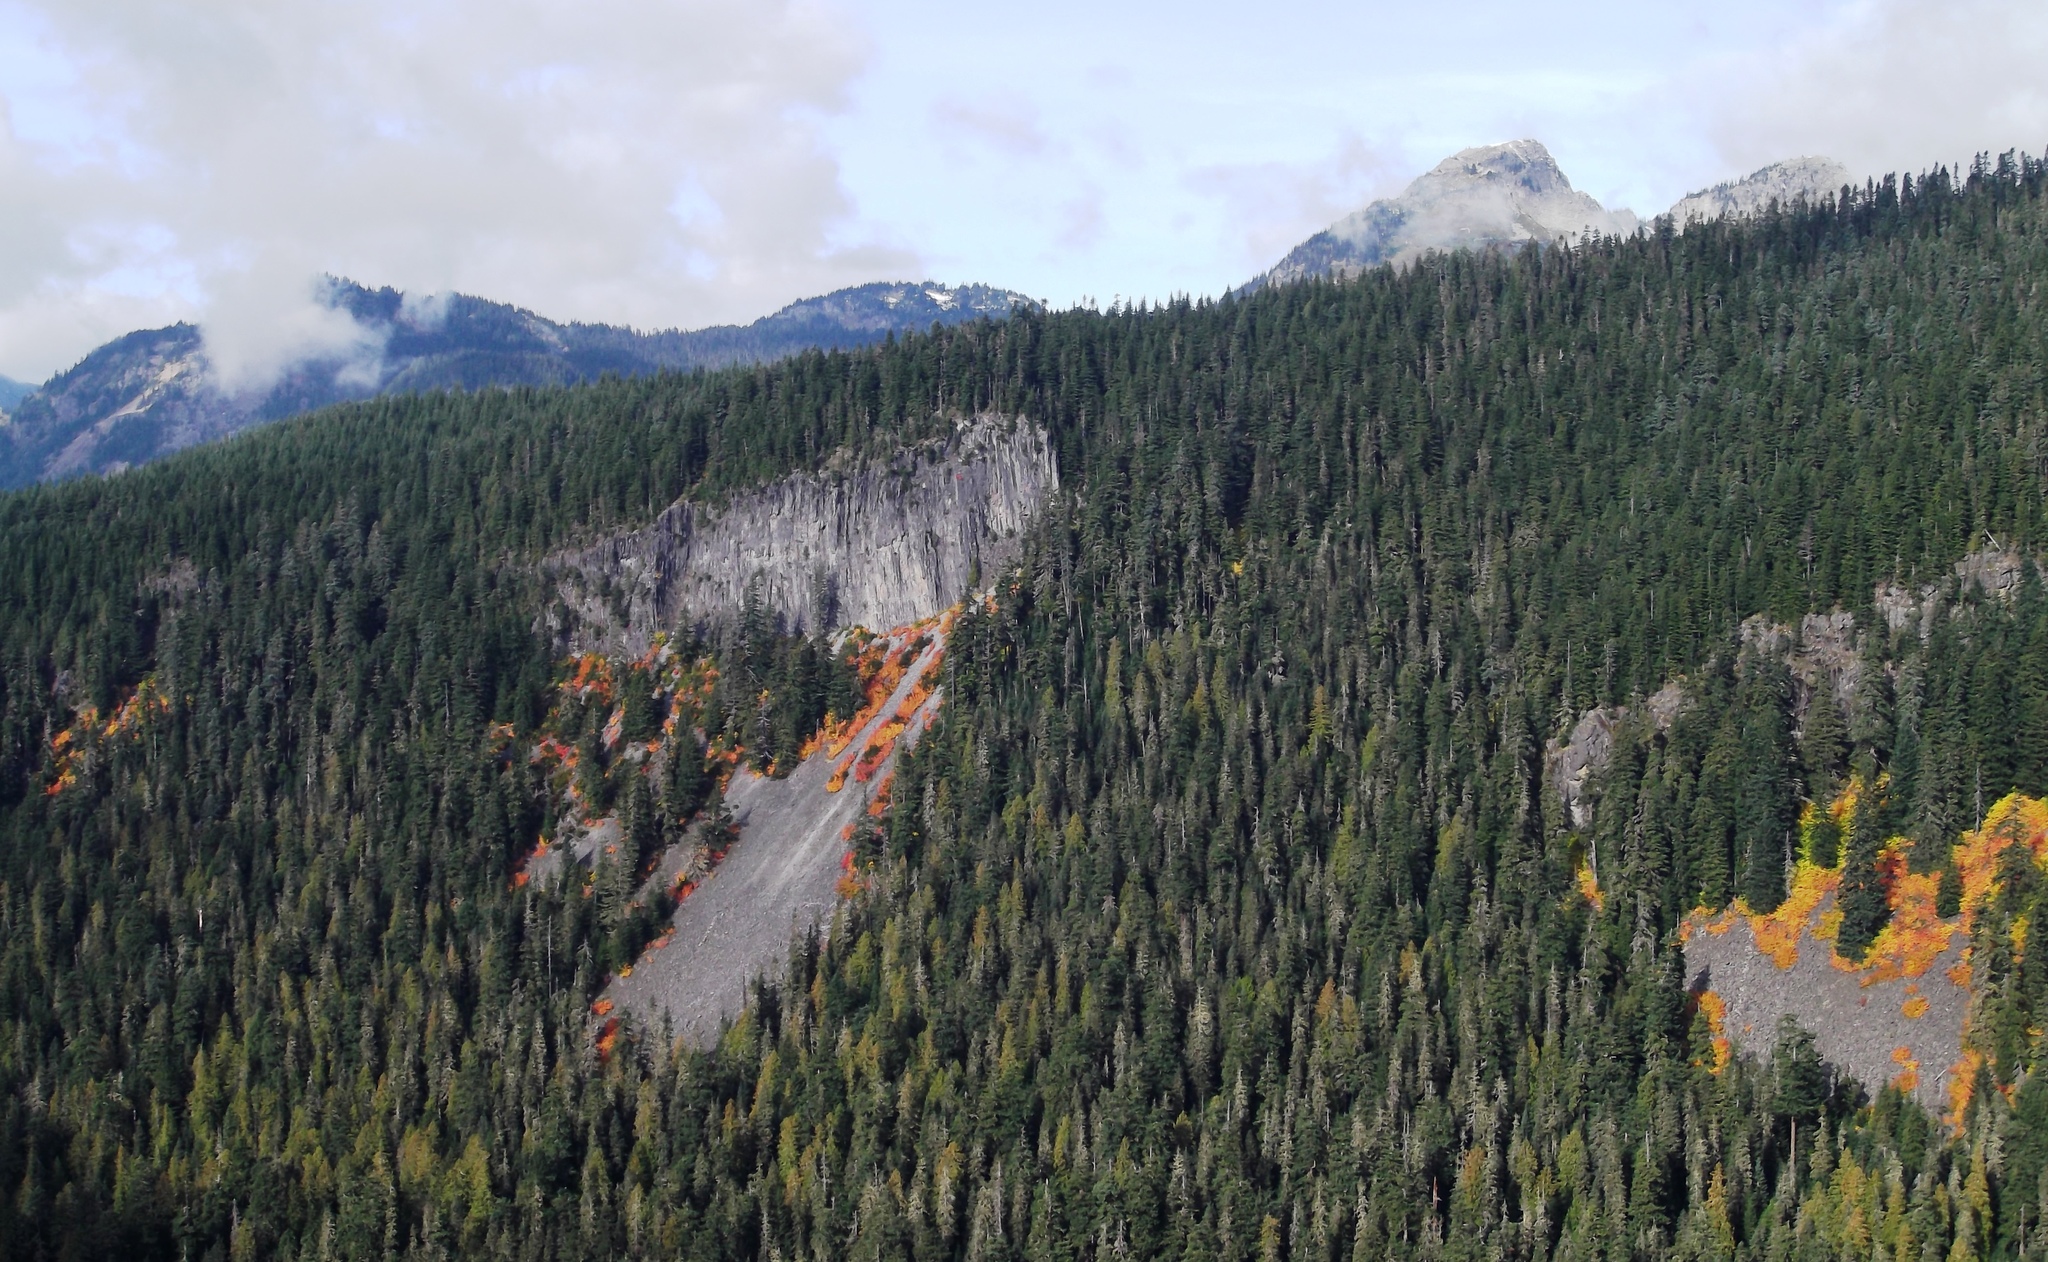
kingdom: Plantae
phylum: Tracheophyta
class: Magnoliopsida
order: Sapindales
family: Sapindaceae
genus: Acer
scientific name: Acer
